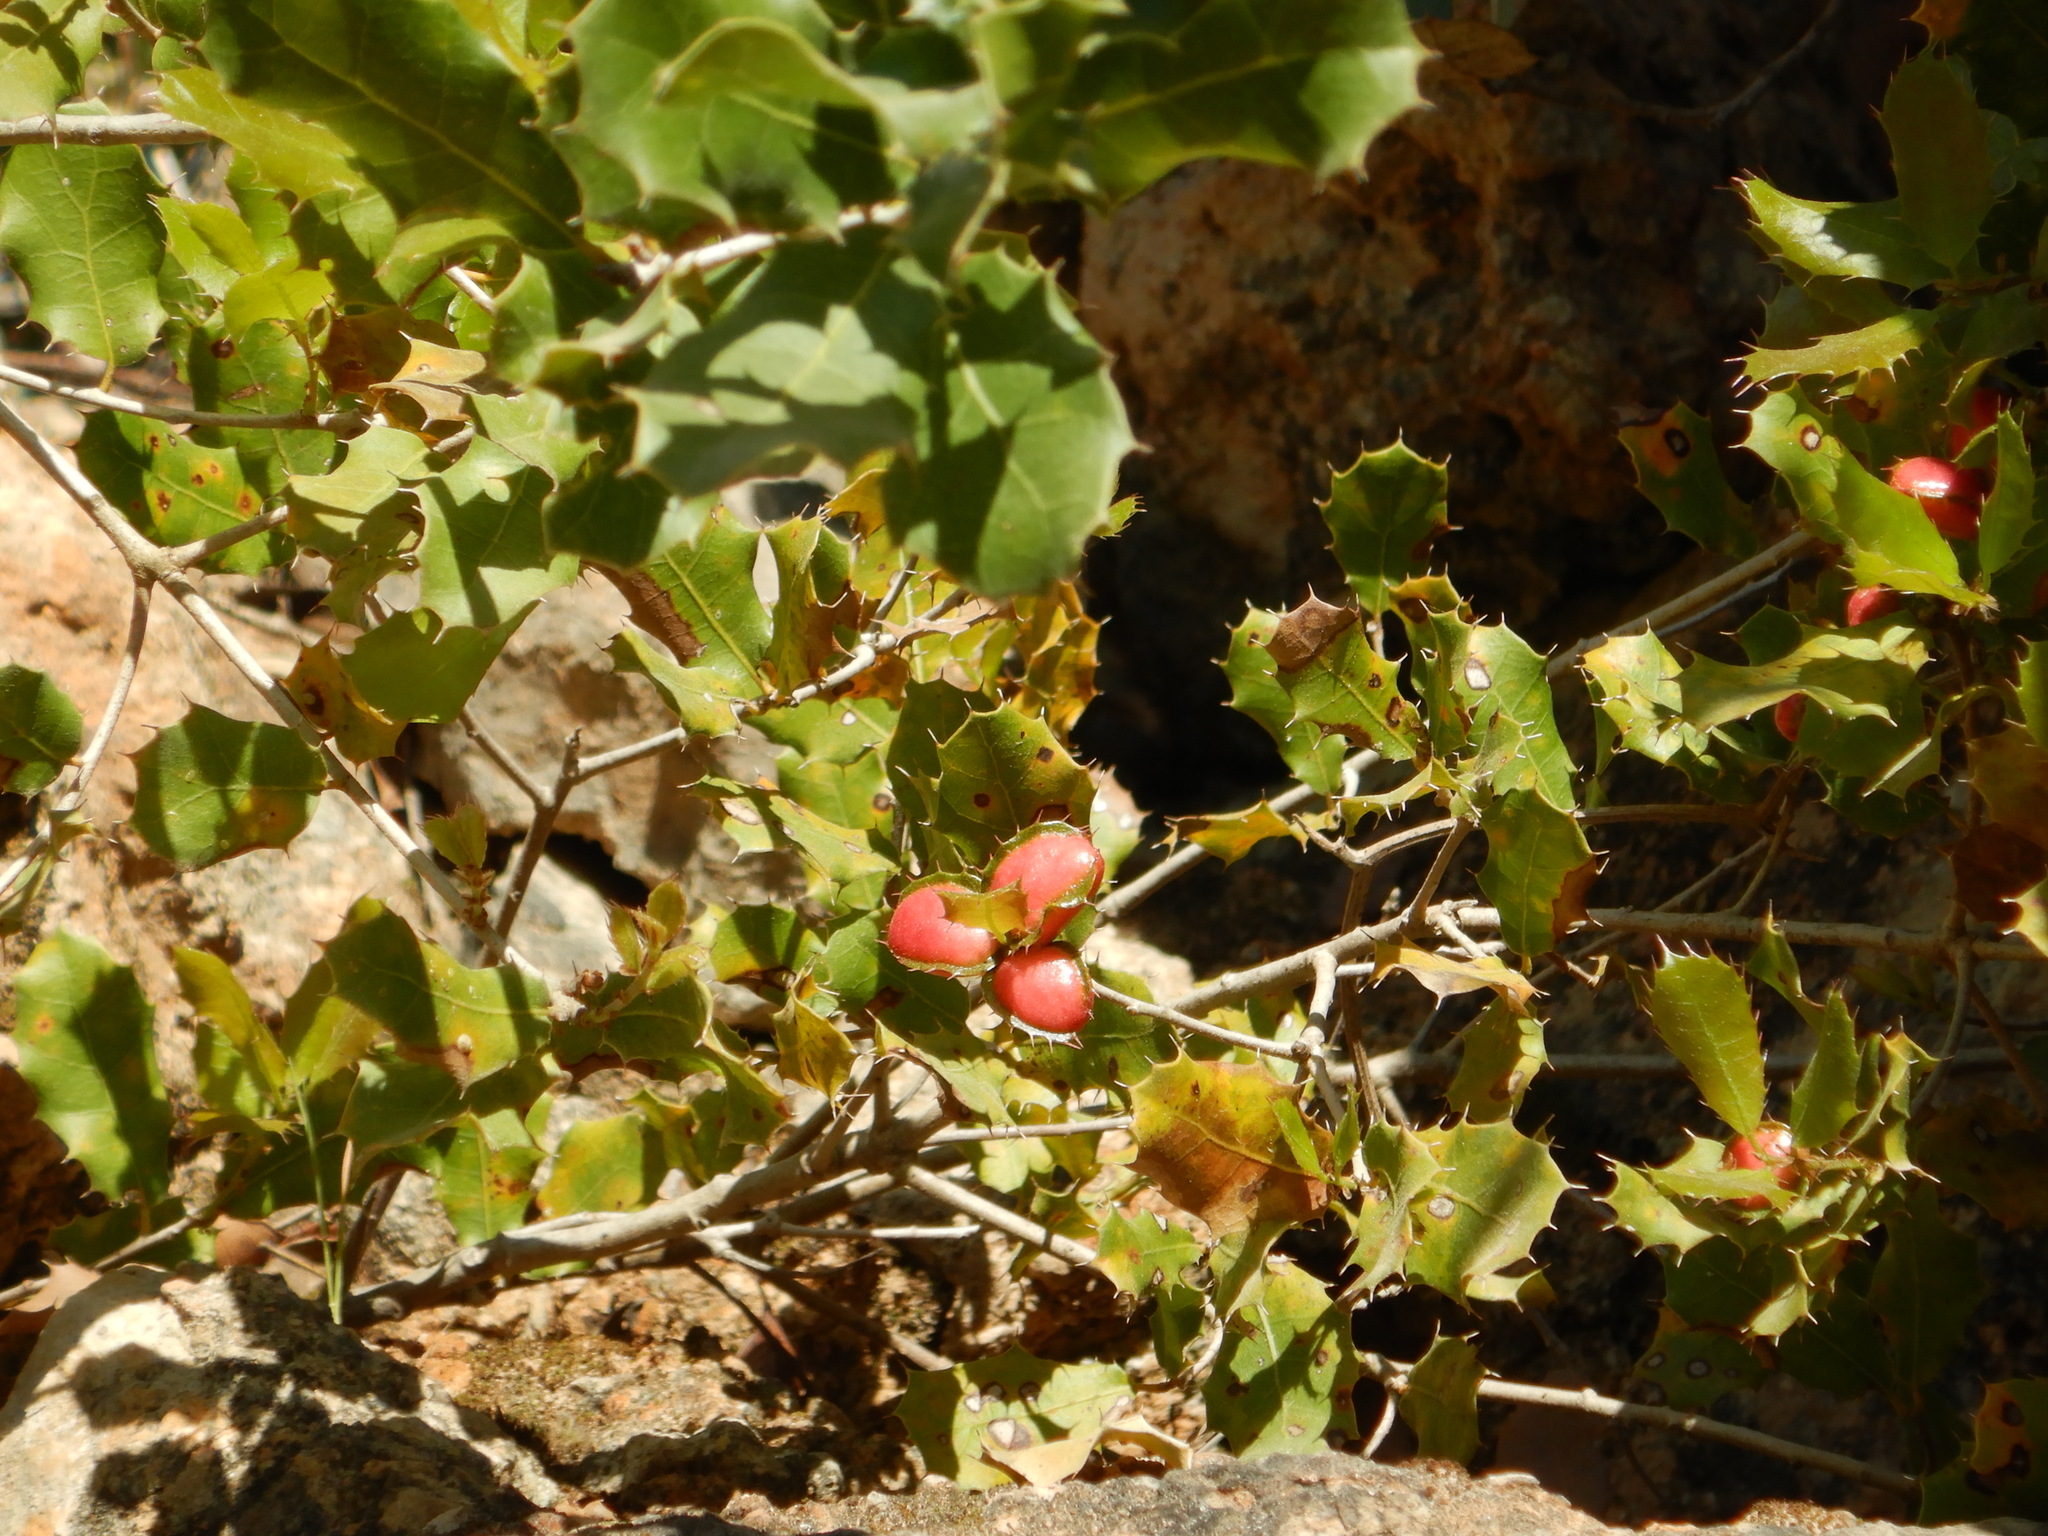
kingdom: Animalia
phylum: Arthropoda
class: Insecta
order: Hymenoptera
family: Cynipidae
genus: Plagiotrochus
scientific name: Plagiotrochus quercusilicis
